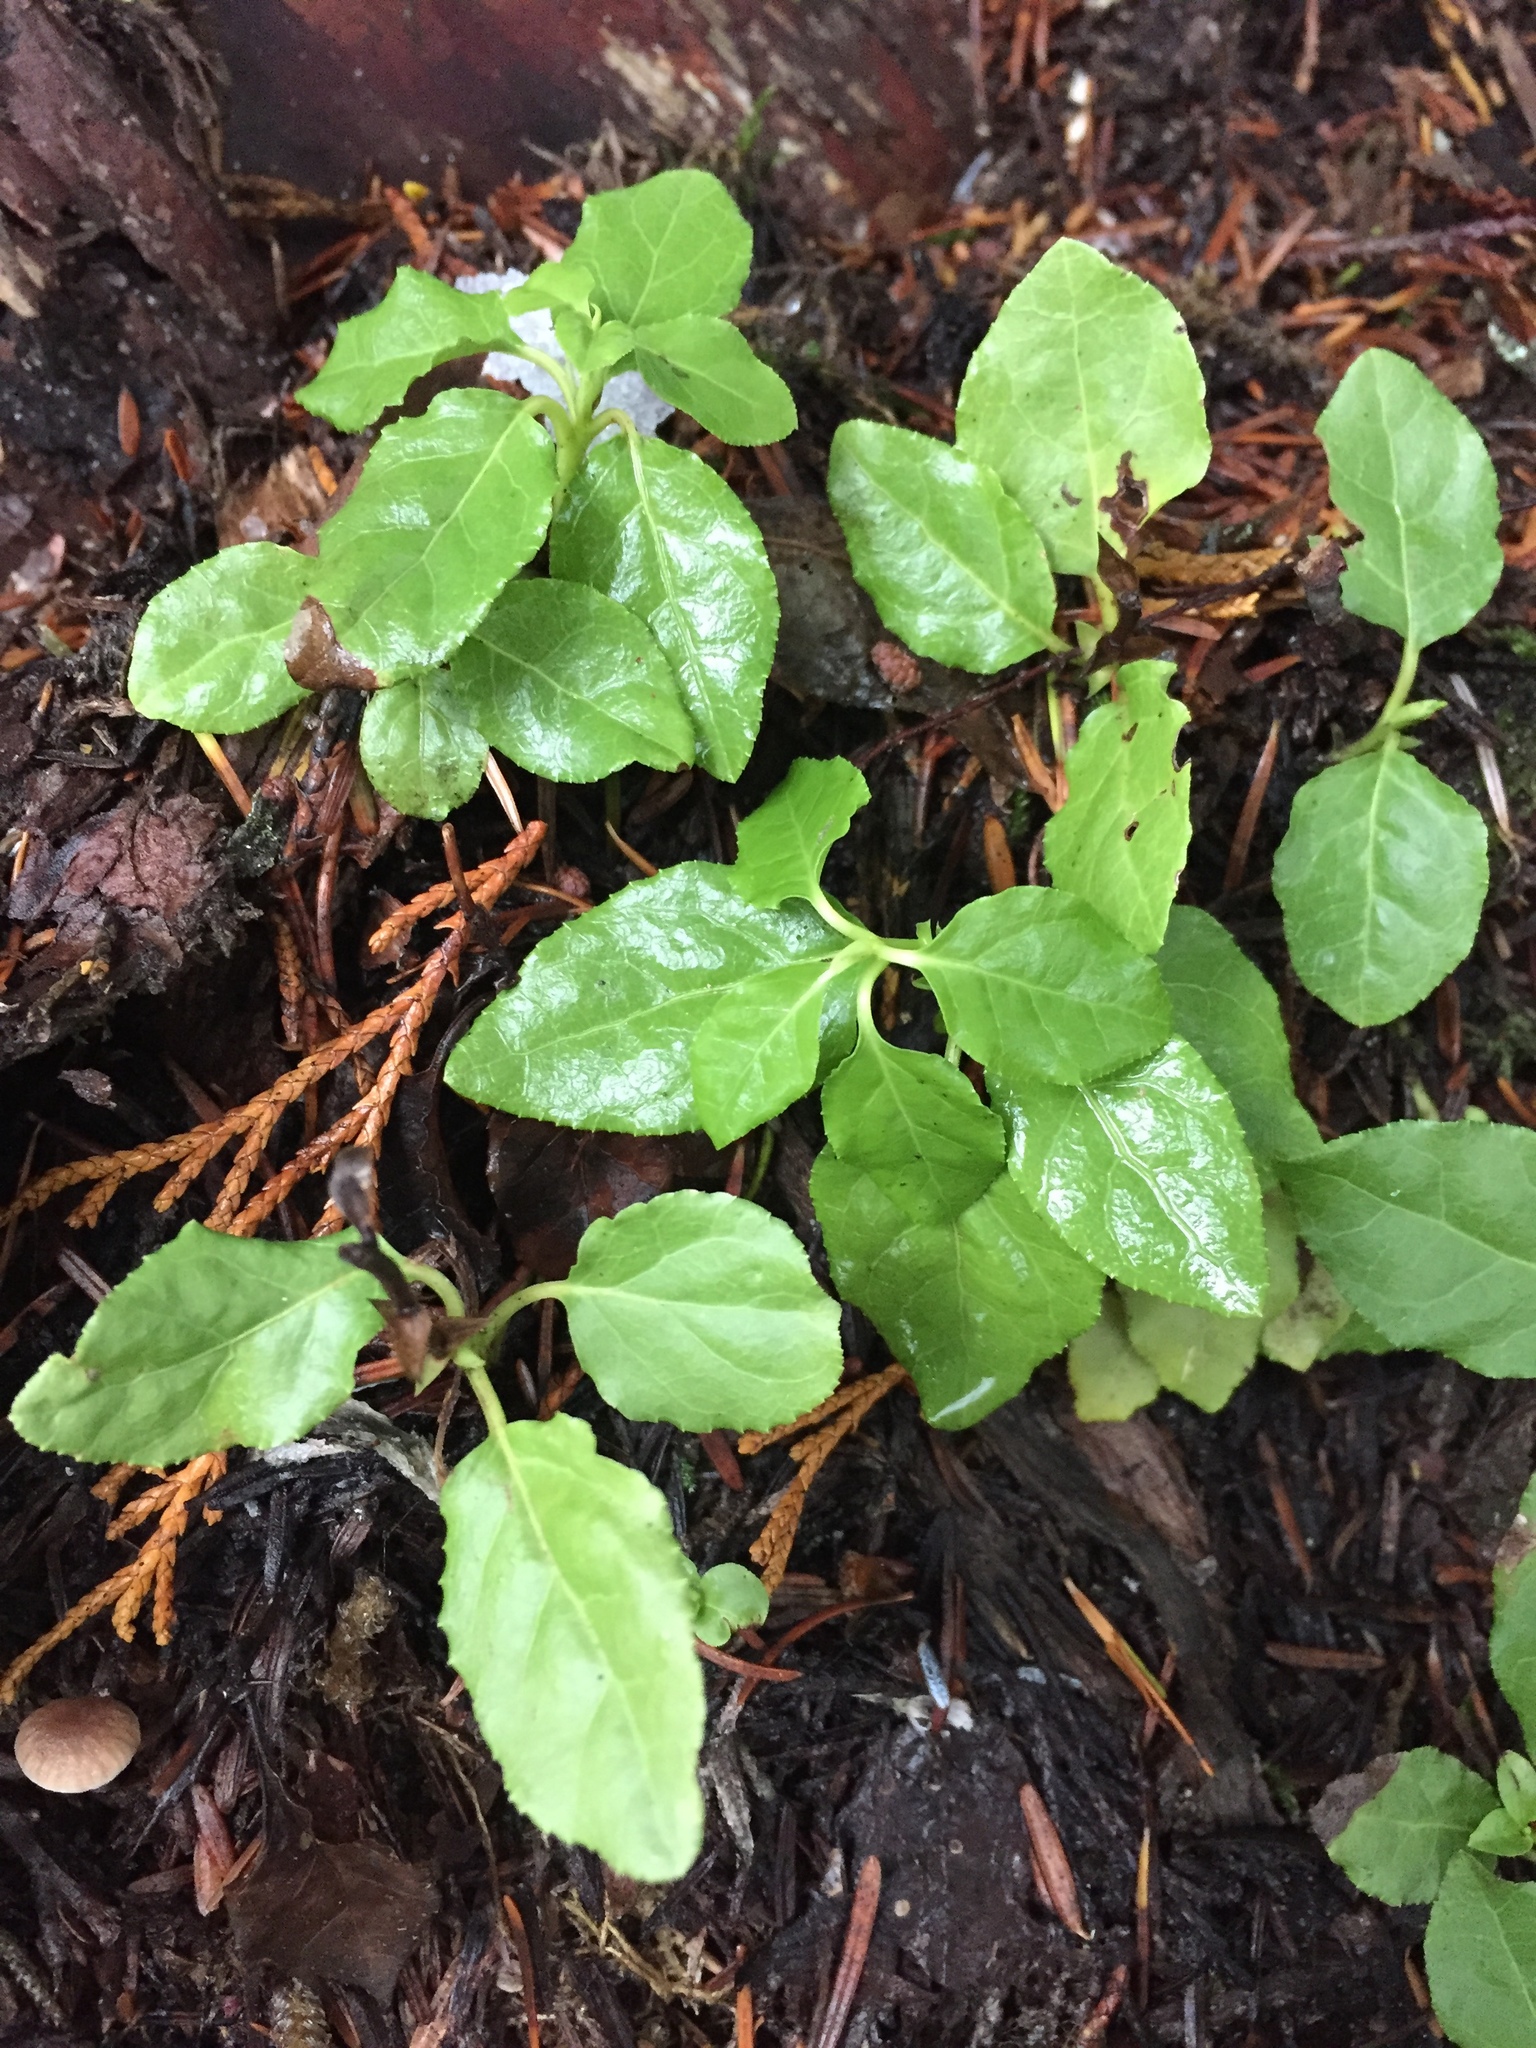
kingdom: Plantae
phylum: Tracheophyta
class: Magnoliopsida
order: Ericales
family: Ericaceae
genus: Orthilia
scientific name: Orthilia secunda
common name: One-sided orthilia
